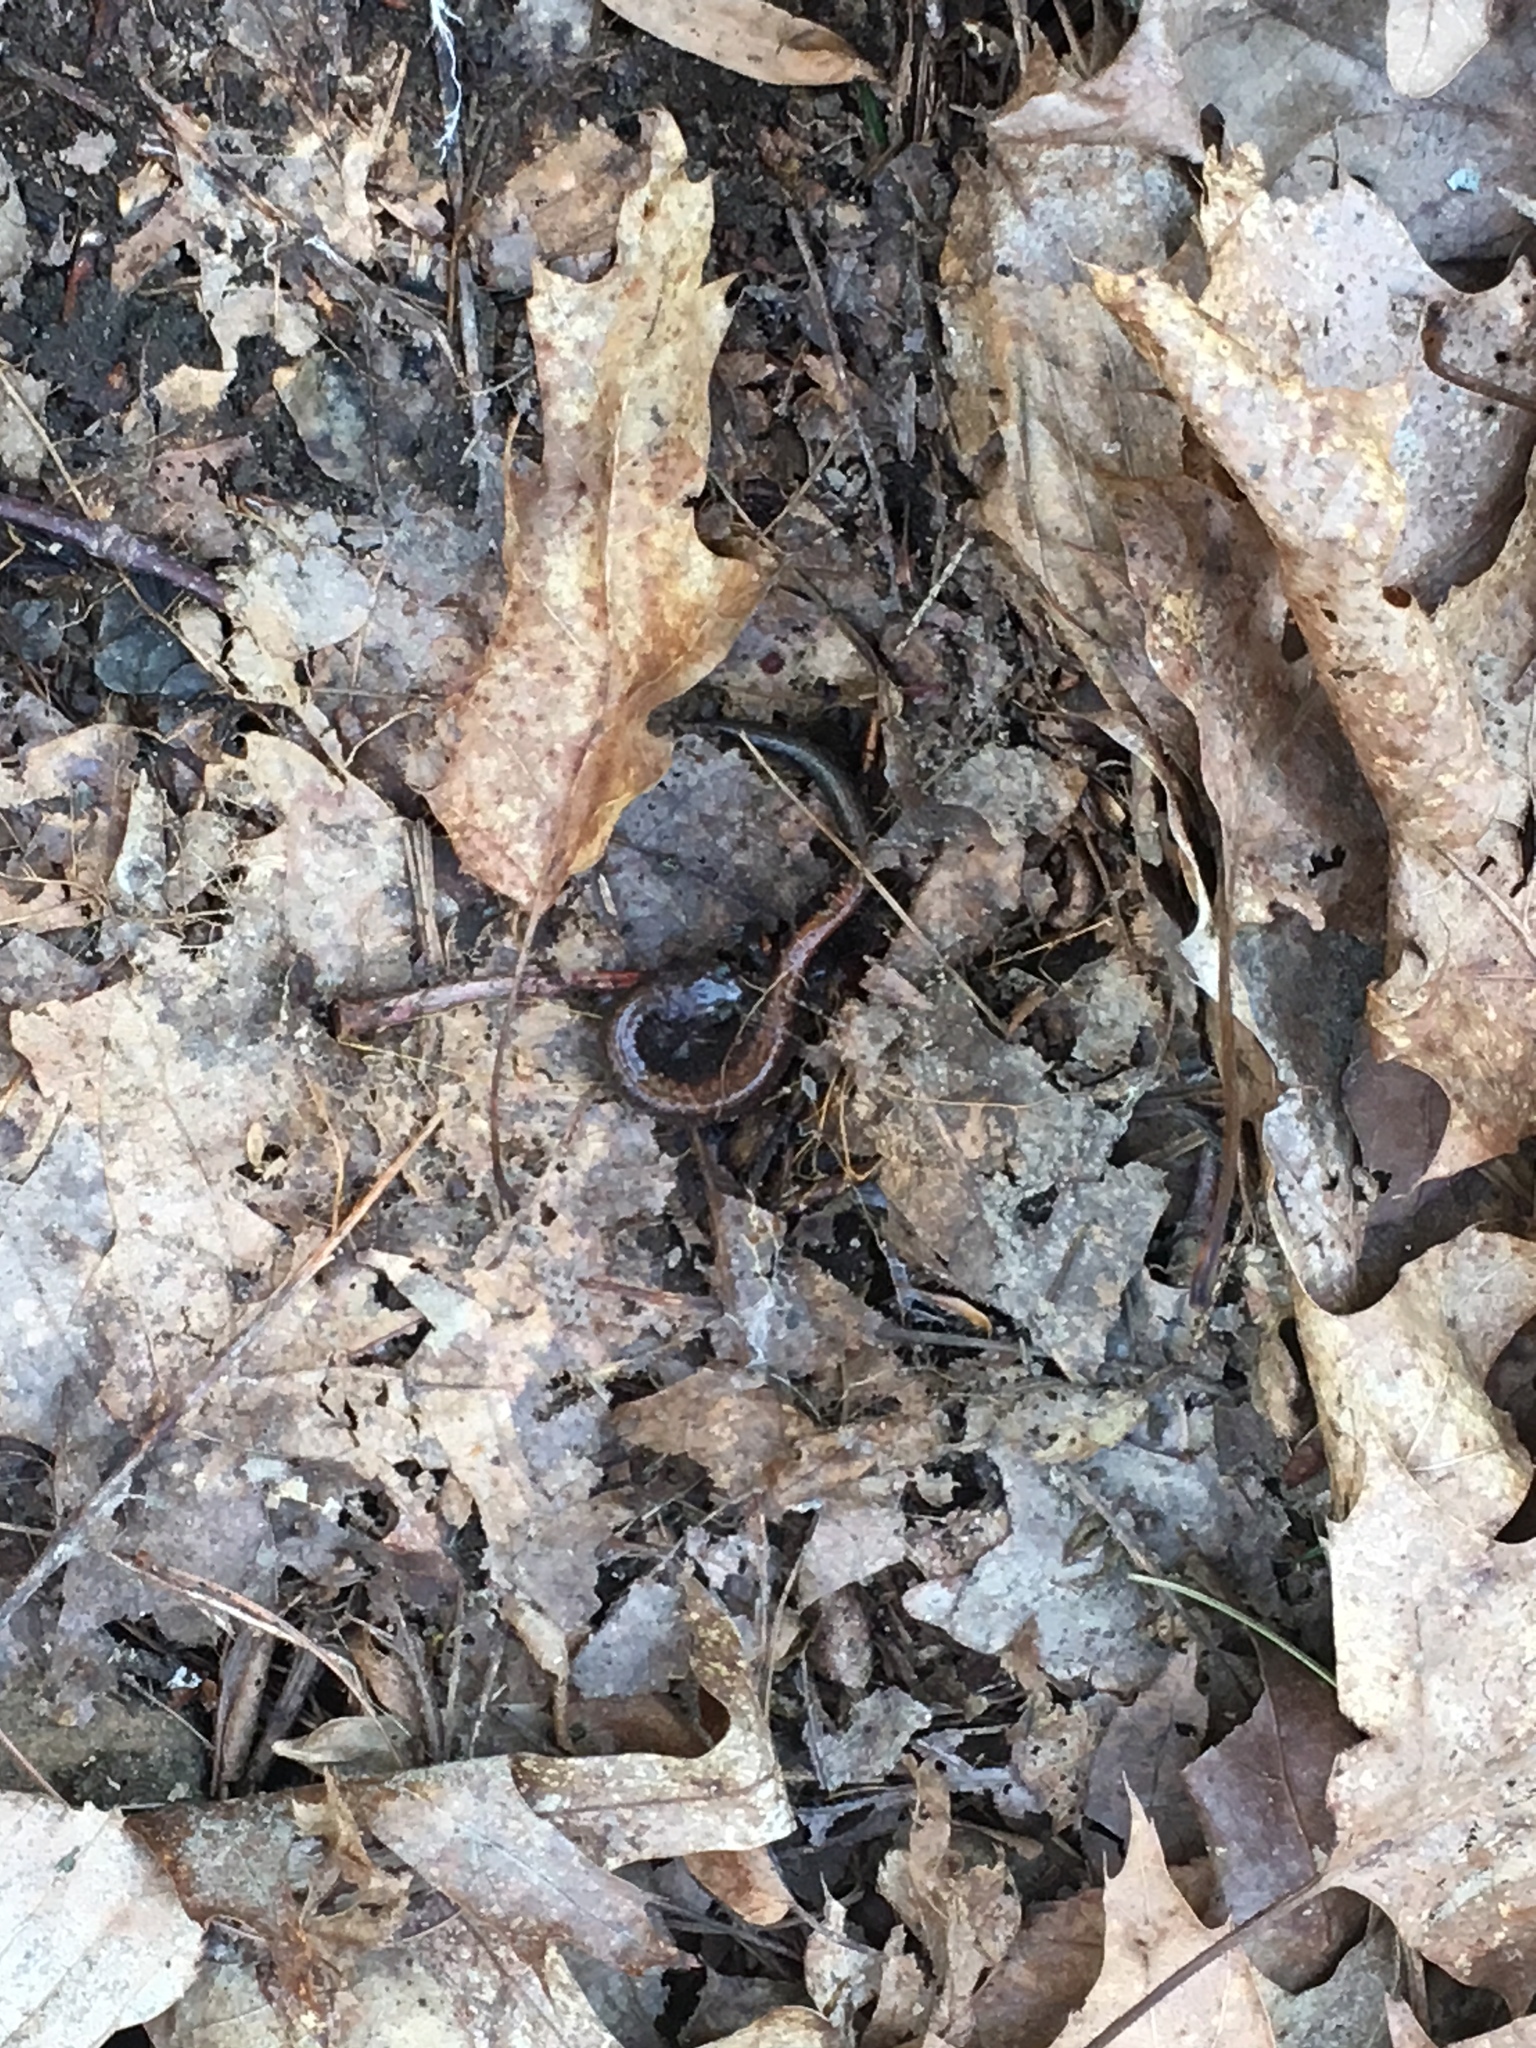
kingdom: Animalia
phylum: Chordata
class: Amphibia
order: Caudata
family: Plethodontidae
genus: Plethodon
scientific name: Plethodon cinereus
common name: Redback salamander
